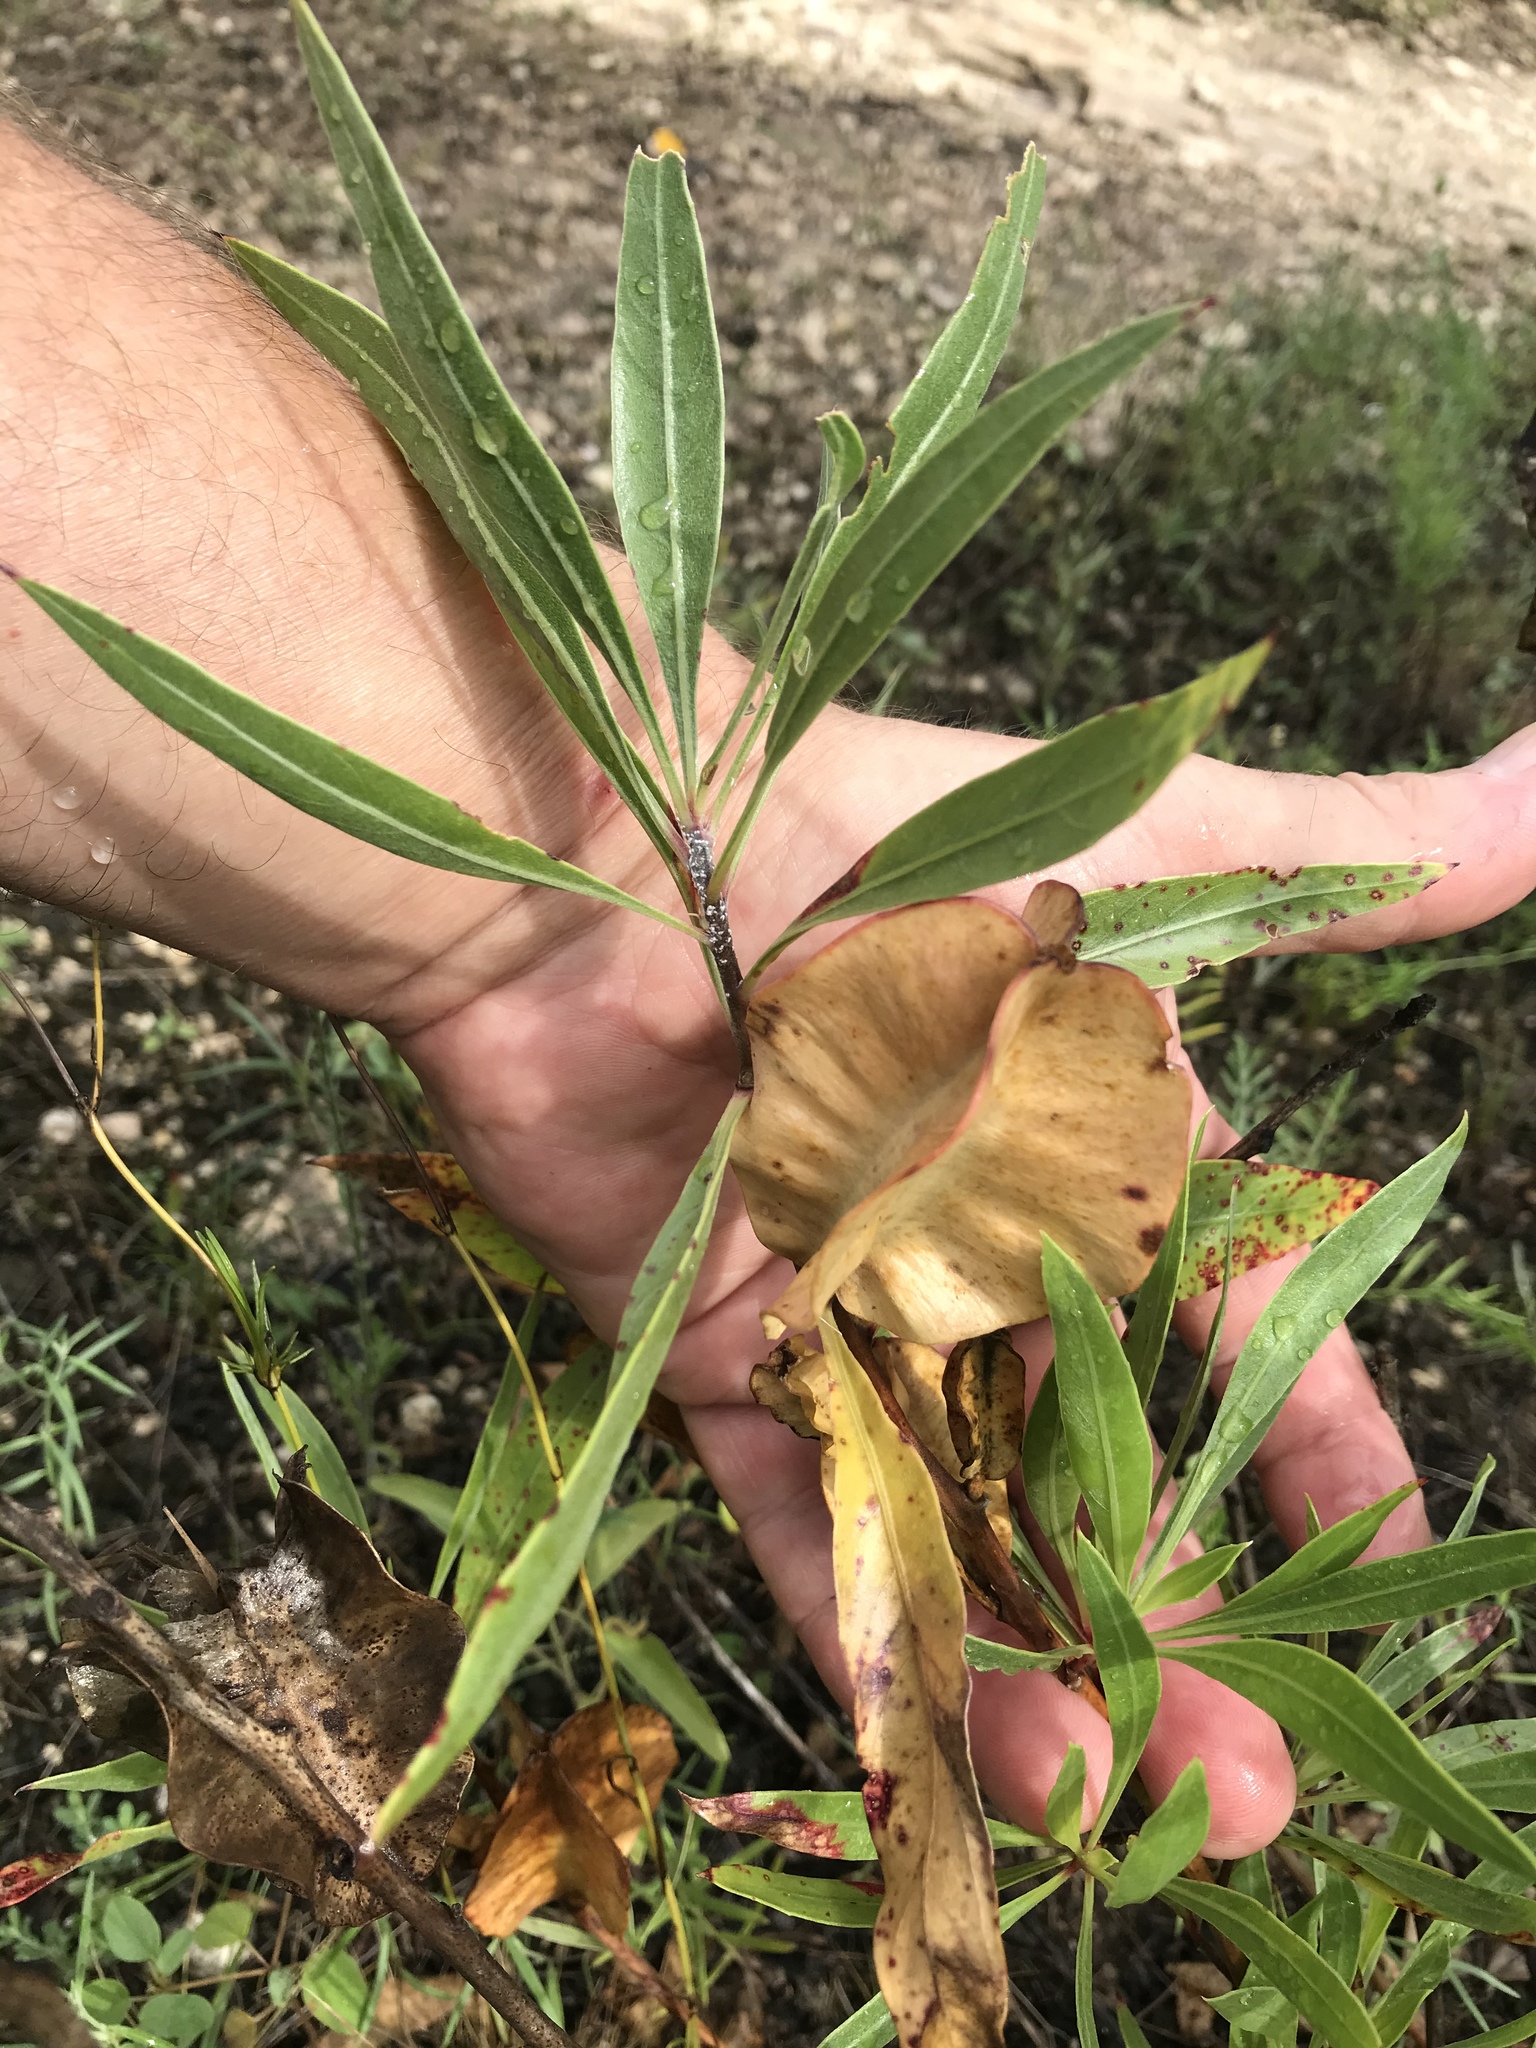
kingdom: Plantae
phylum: Tracheophyta
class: Magnoliopsida
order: Myrtales
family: Onagraceae
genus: Oenothera
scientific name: Oenothera macrocarpa
